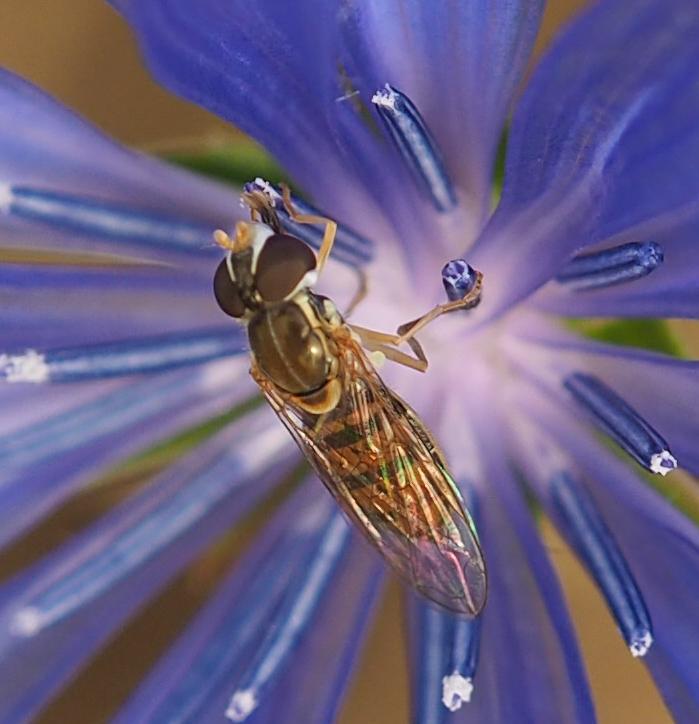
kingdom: Animalia
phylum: Arthropoda
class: Insecta
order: Diptera
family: Syrphidae
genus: Toxomerus
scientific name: Toxomerus marginatus
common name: Syrphid fly
